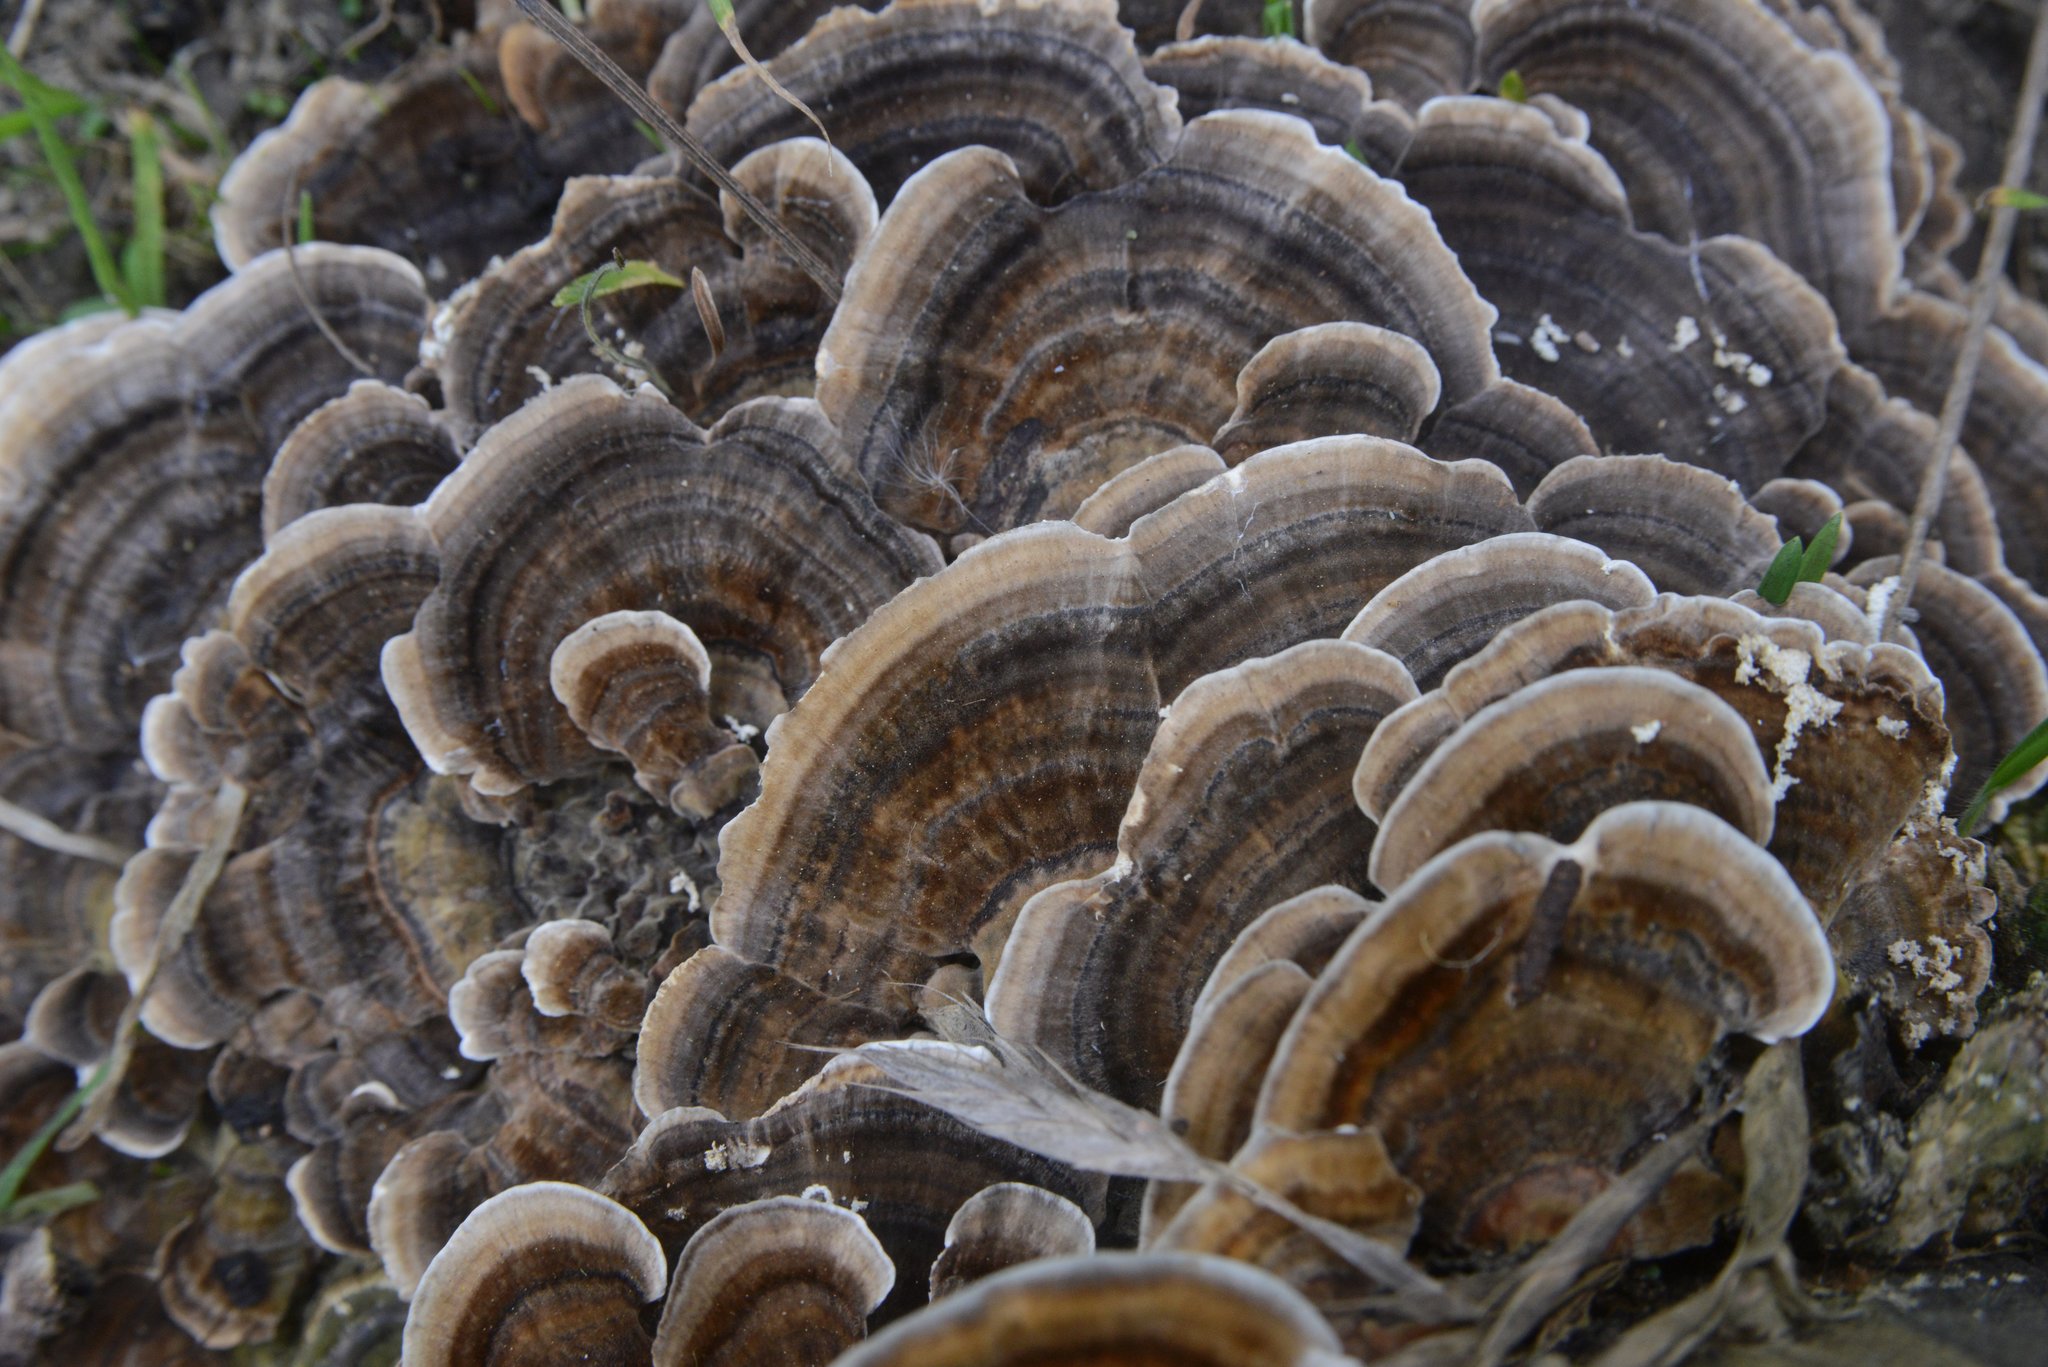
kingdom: Fungi
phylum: Basidiomycota
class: Agaricomycetes
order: Polyporales
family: Polyporaceae
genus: Trametes
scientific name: Trametes versicolor
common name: Turkeytail
